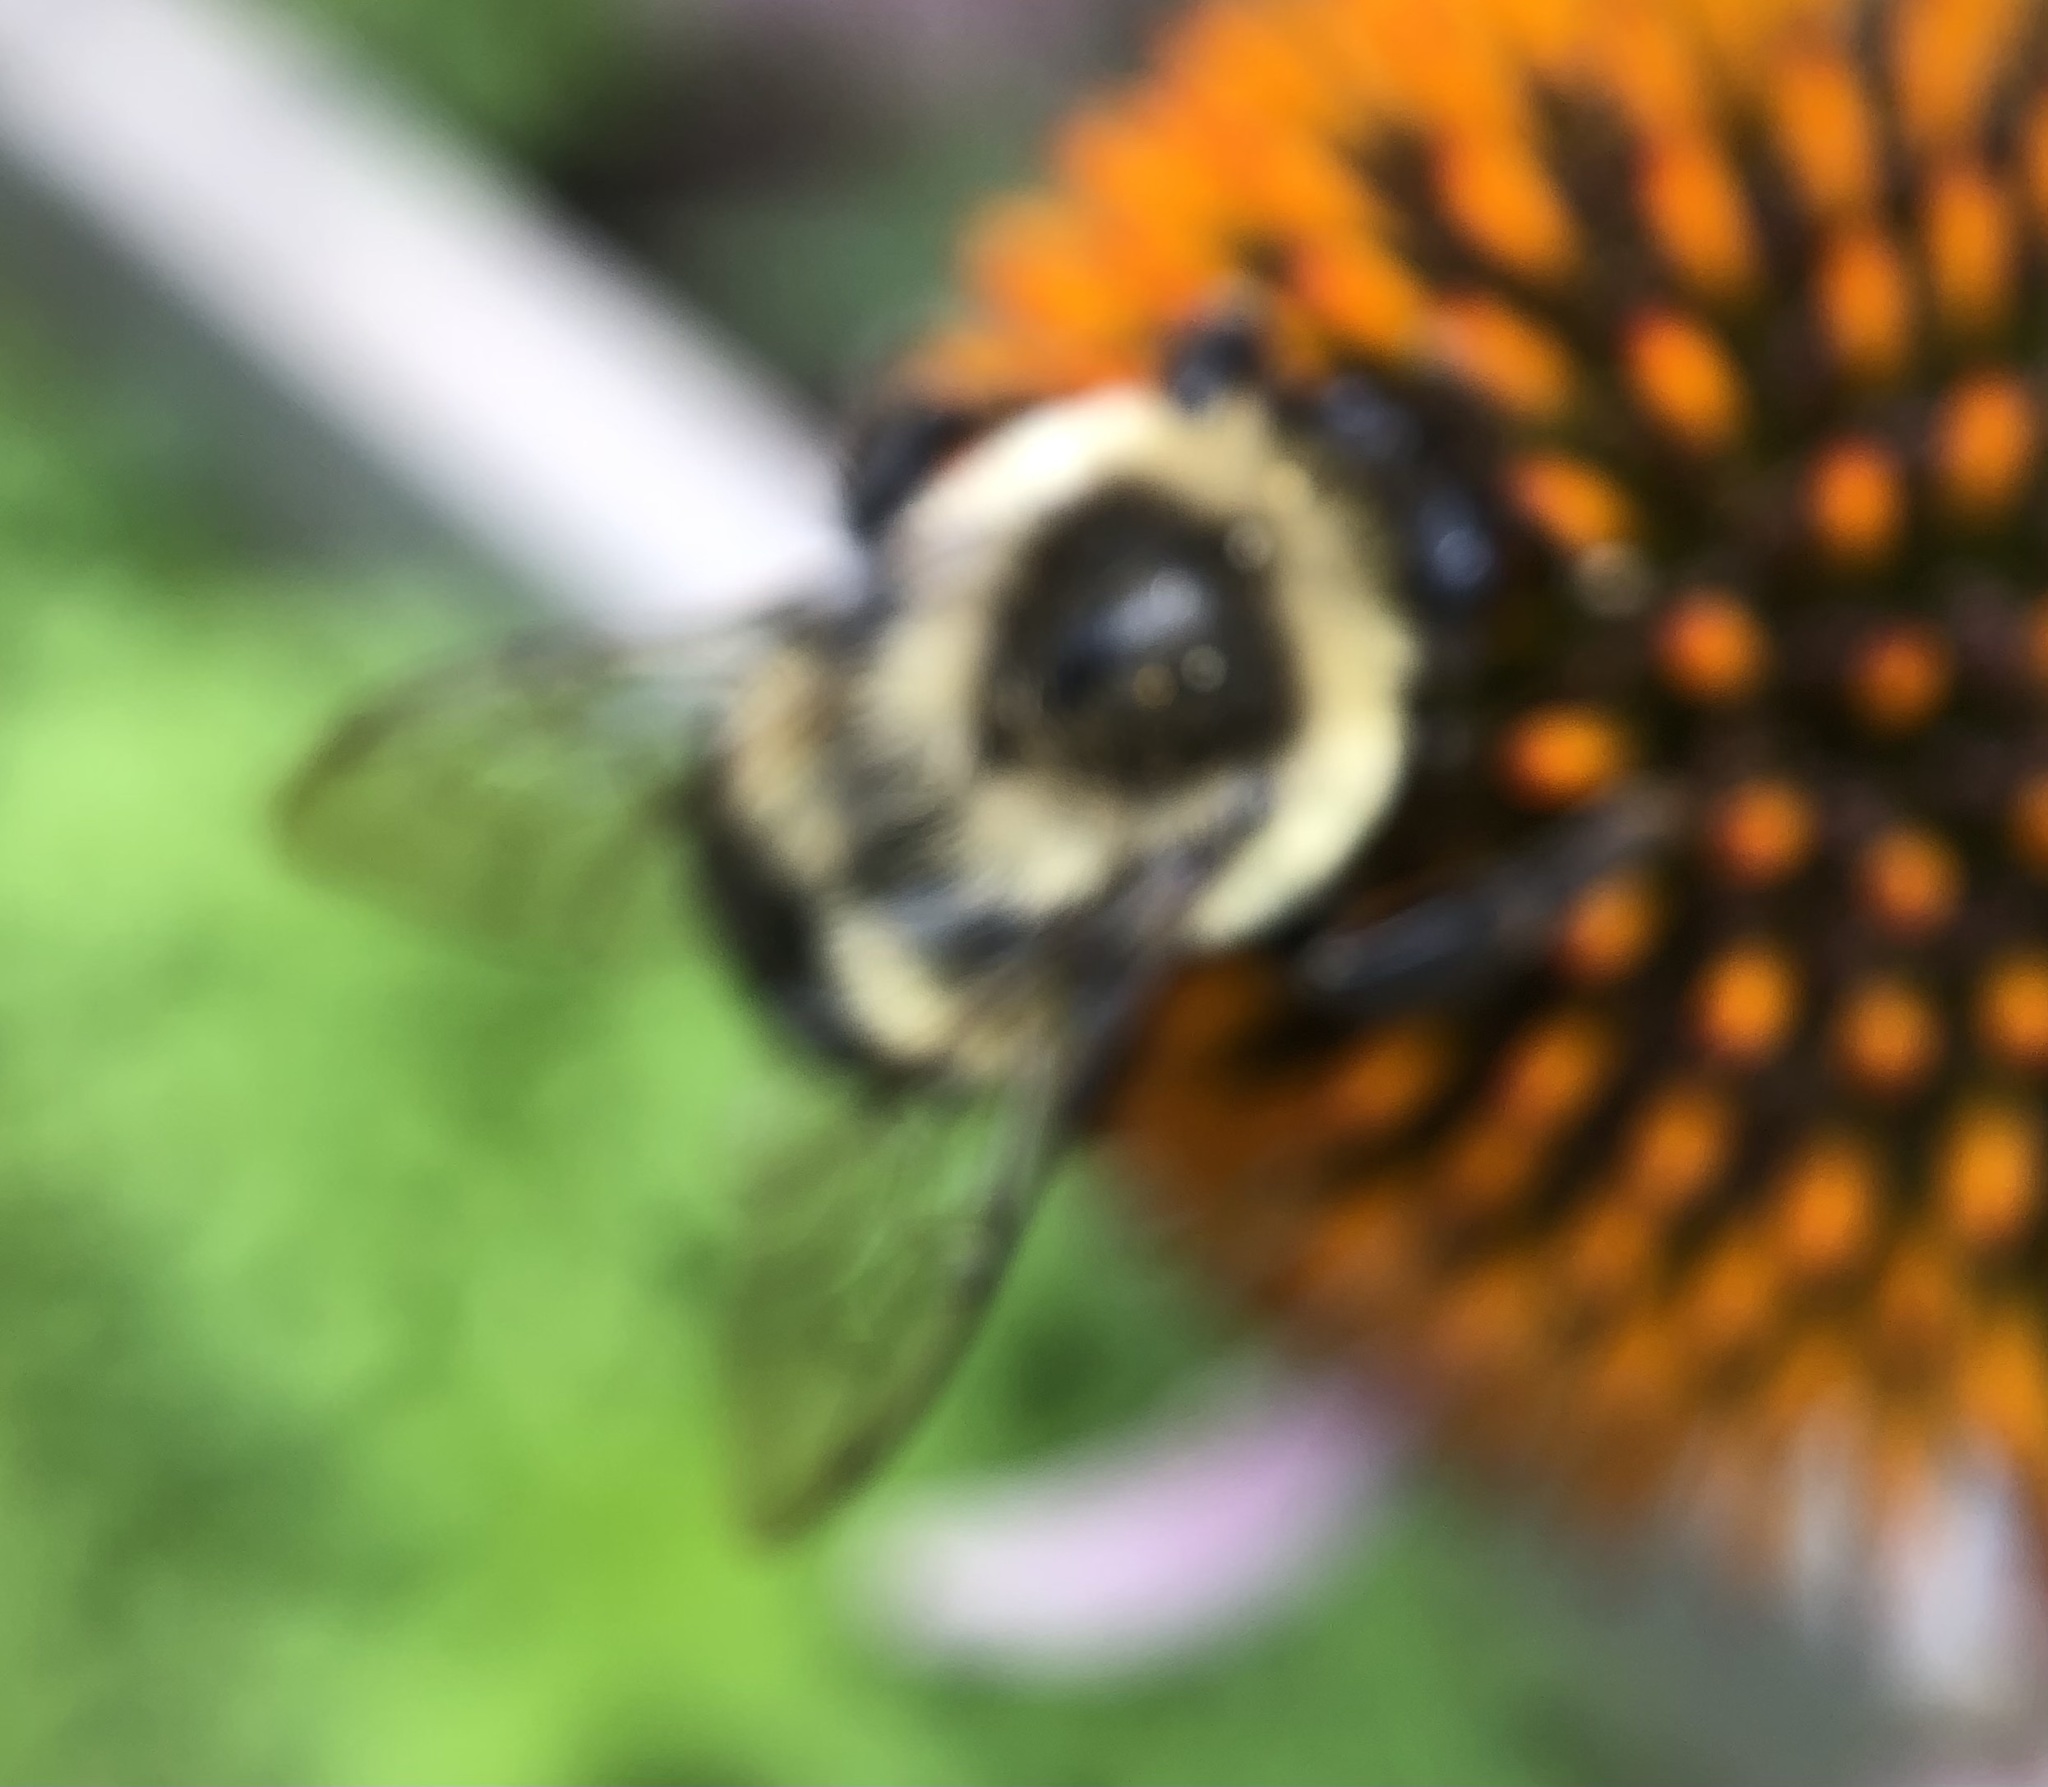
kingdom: Animalia
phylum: Arthropoda
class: Insecta
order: Hymenoptera
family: Apidae
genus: Bombus
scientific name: Bombus impatiens
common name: Common eastern bumble bee
